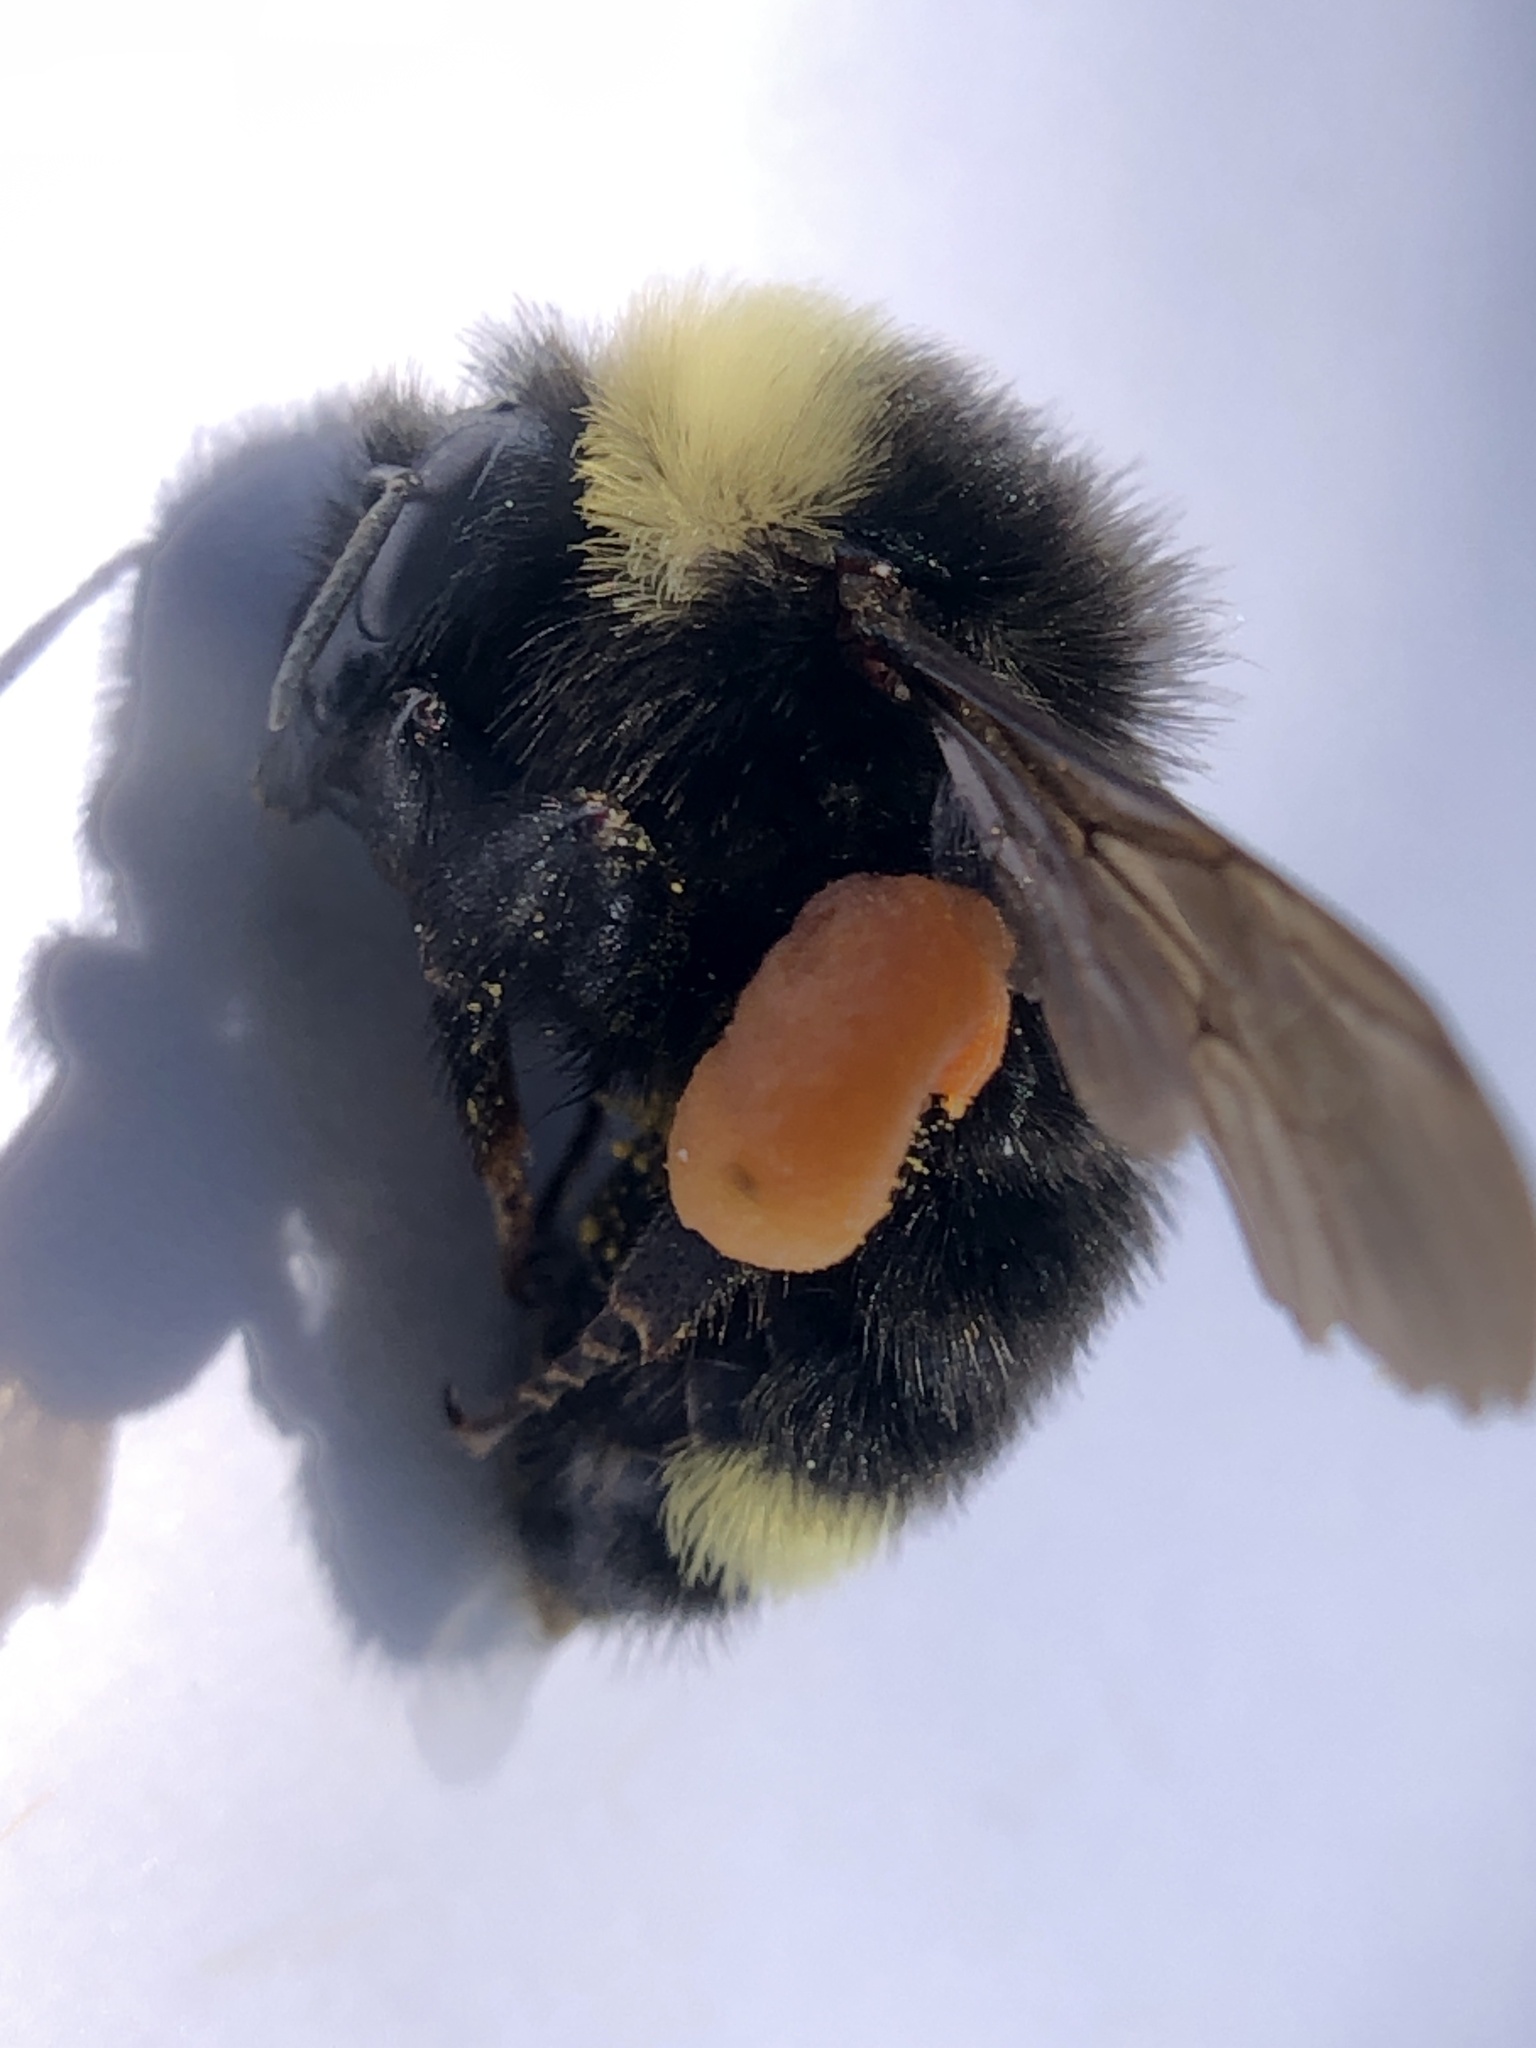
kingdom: Animalia
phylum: Arthropoda
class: Insecta
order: Hymenoptera
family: Apidae
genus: Bombus
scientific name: Bombus californicus
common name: California bumble bee
